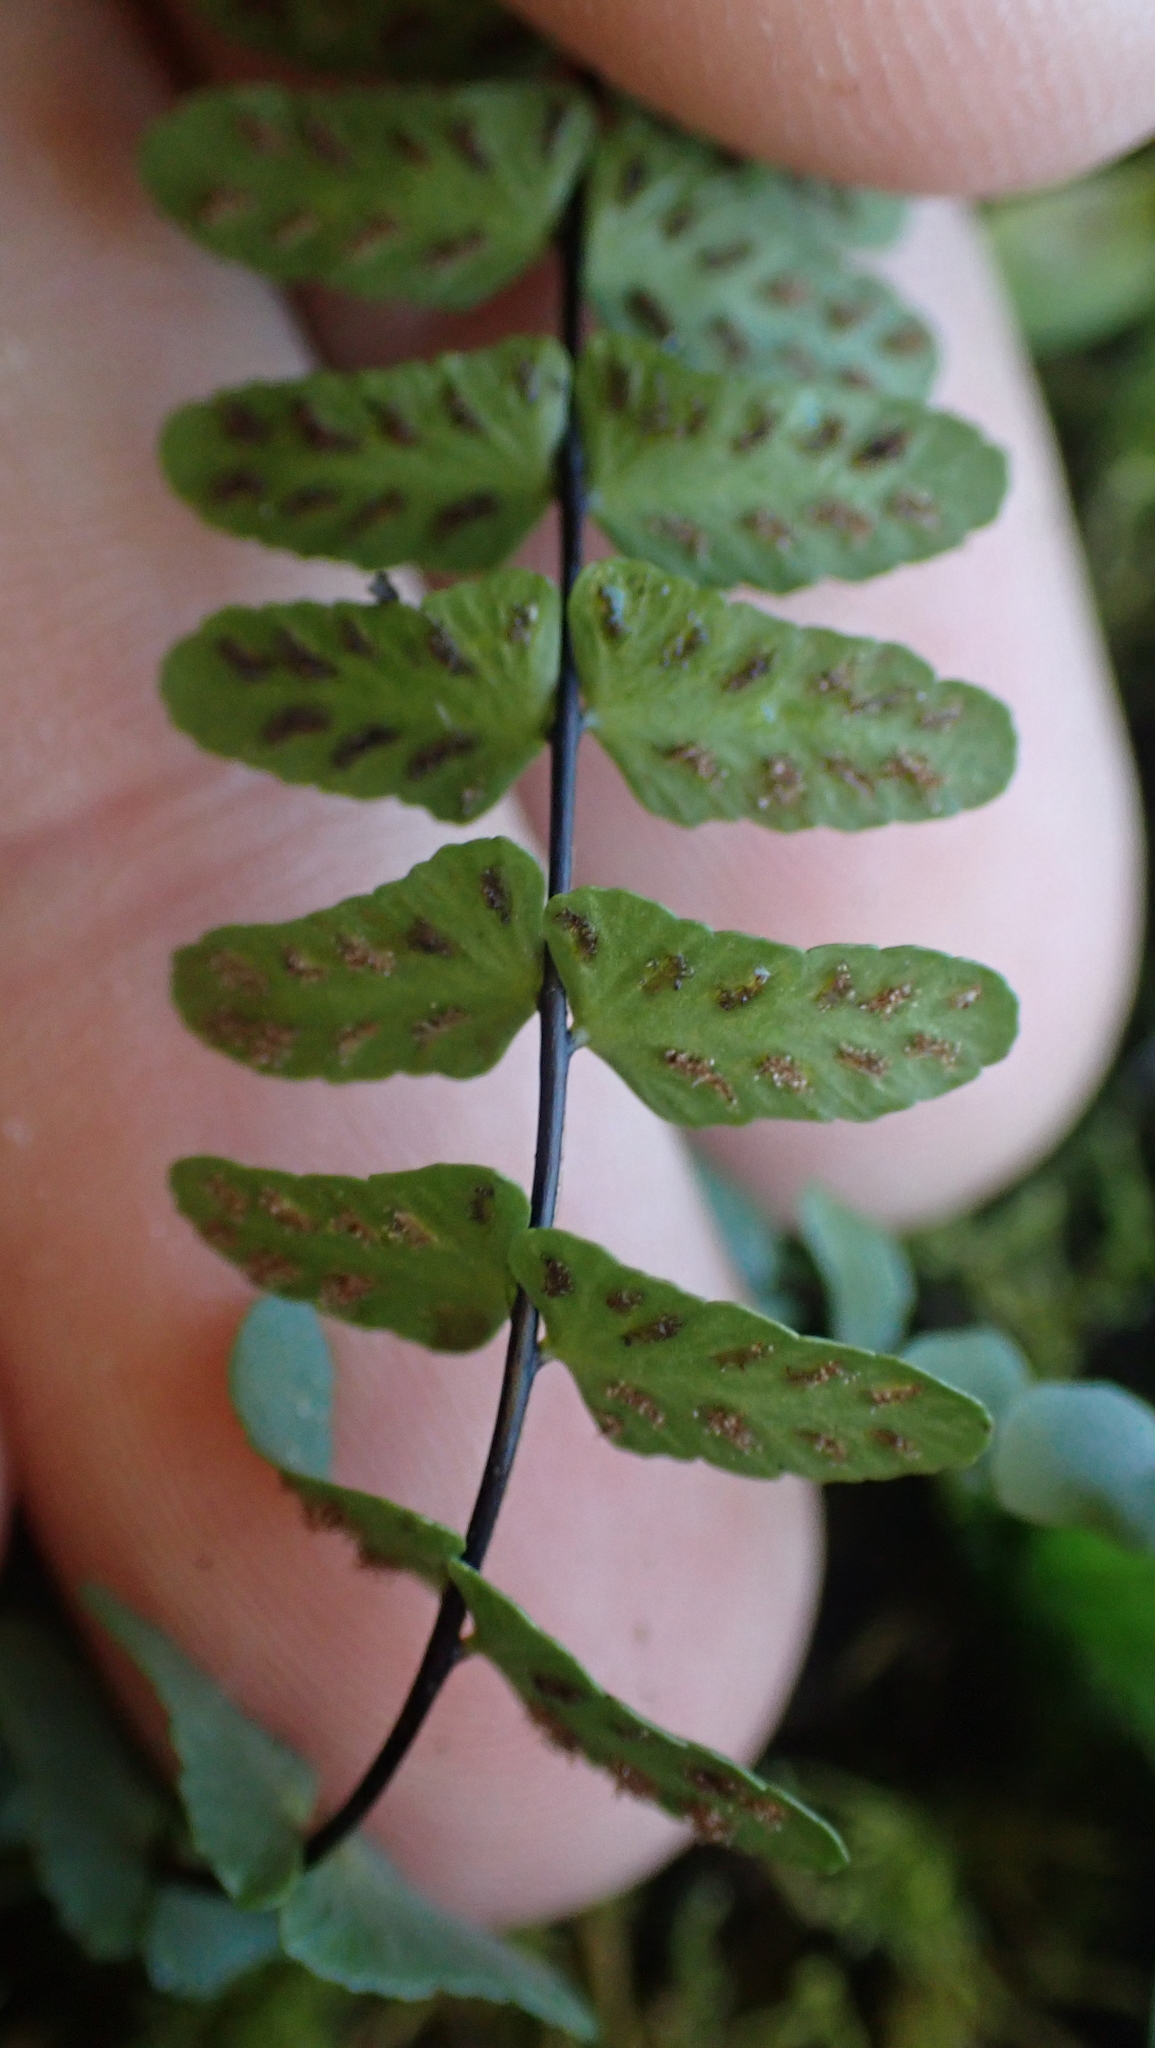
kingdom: Plantae
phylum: Tracheophyta
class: Polypodiopsida
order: Polypodiales
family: Aspleniaceae
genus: Asplenium
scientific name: Asplenium resiliens
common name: Blackstem spleenwort
